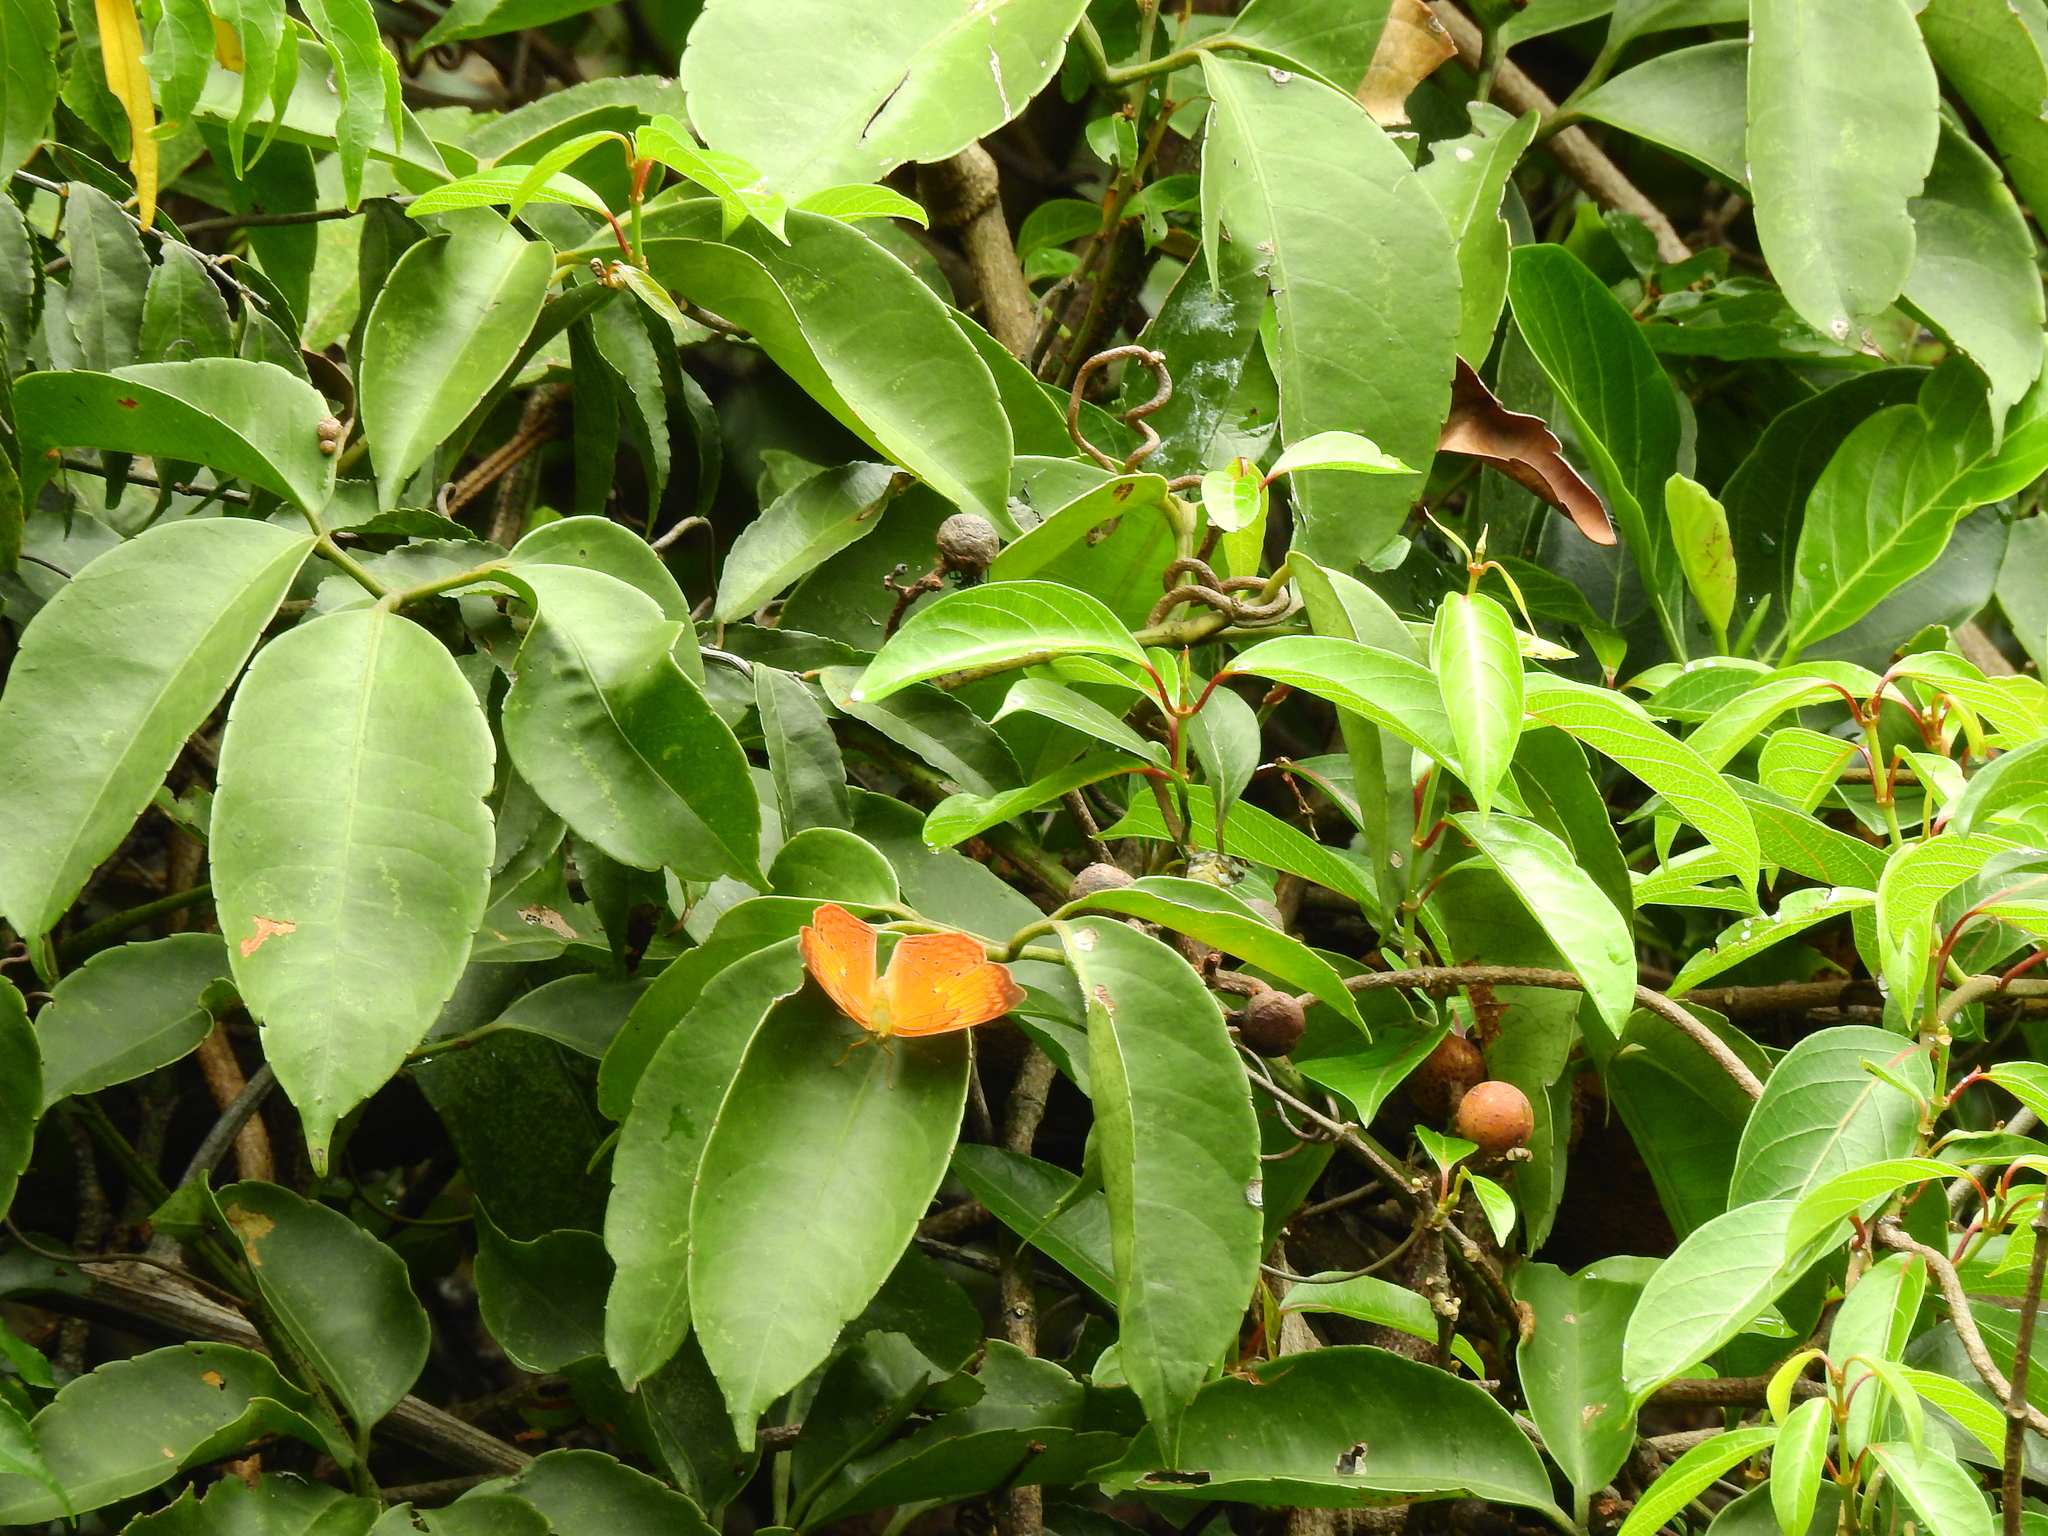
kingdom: Animalia
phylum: Arthropoda
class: Insecta
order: Lepidoptera
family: Nymphalidae
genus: Cirrochroa
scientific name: Cirrochroa thais
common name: Tamil yeoman
